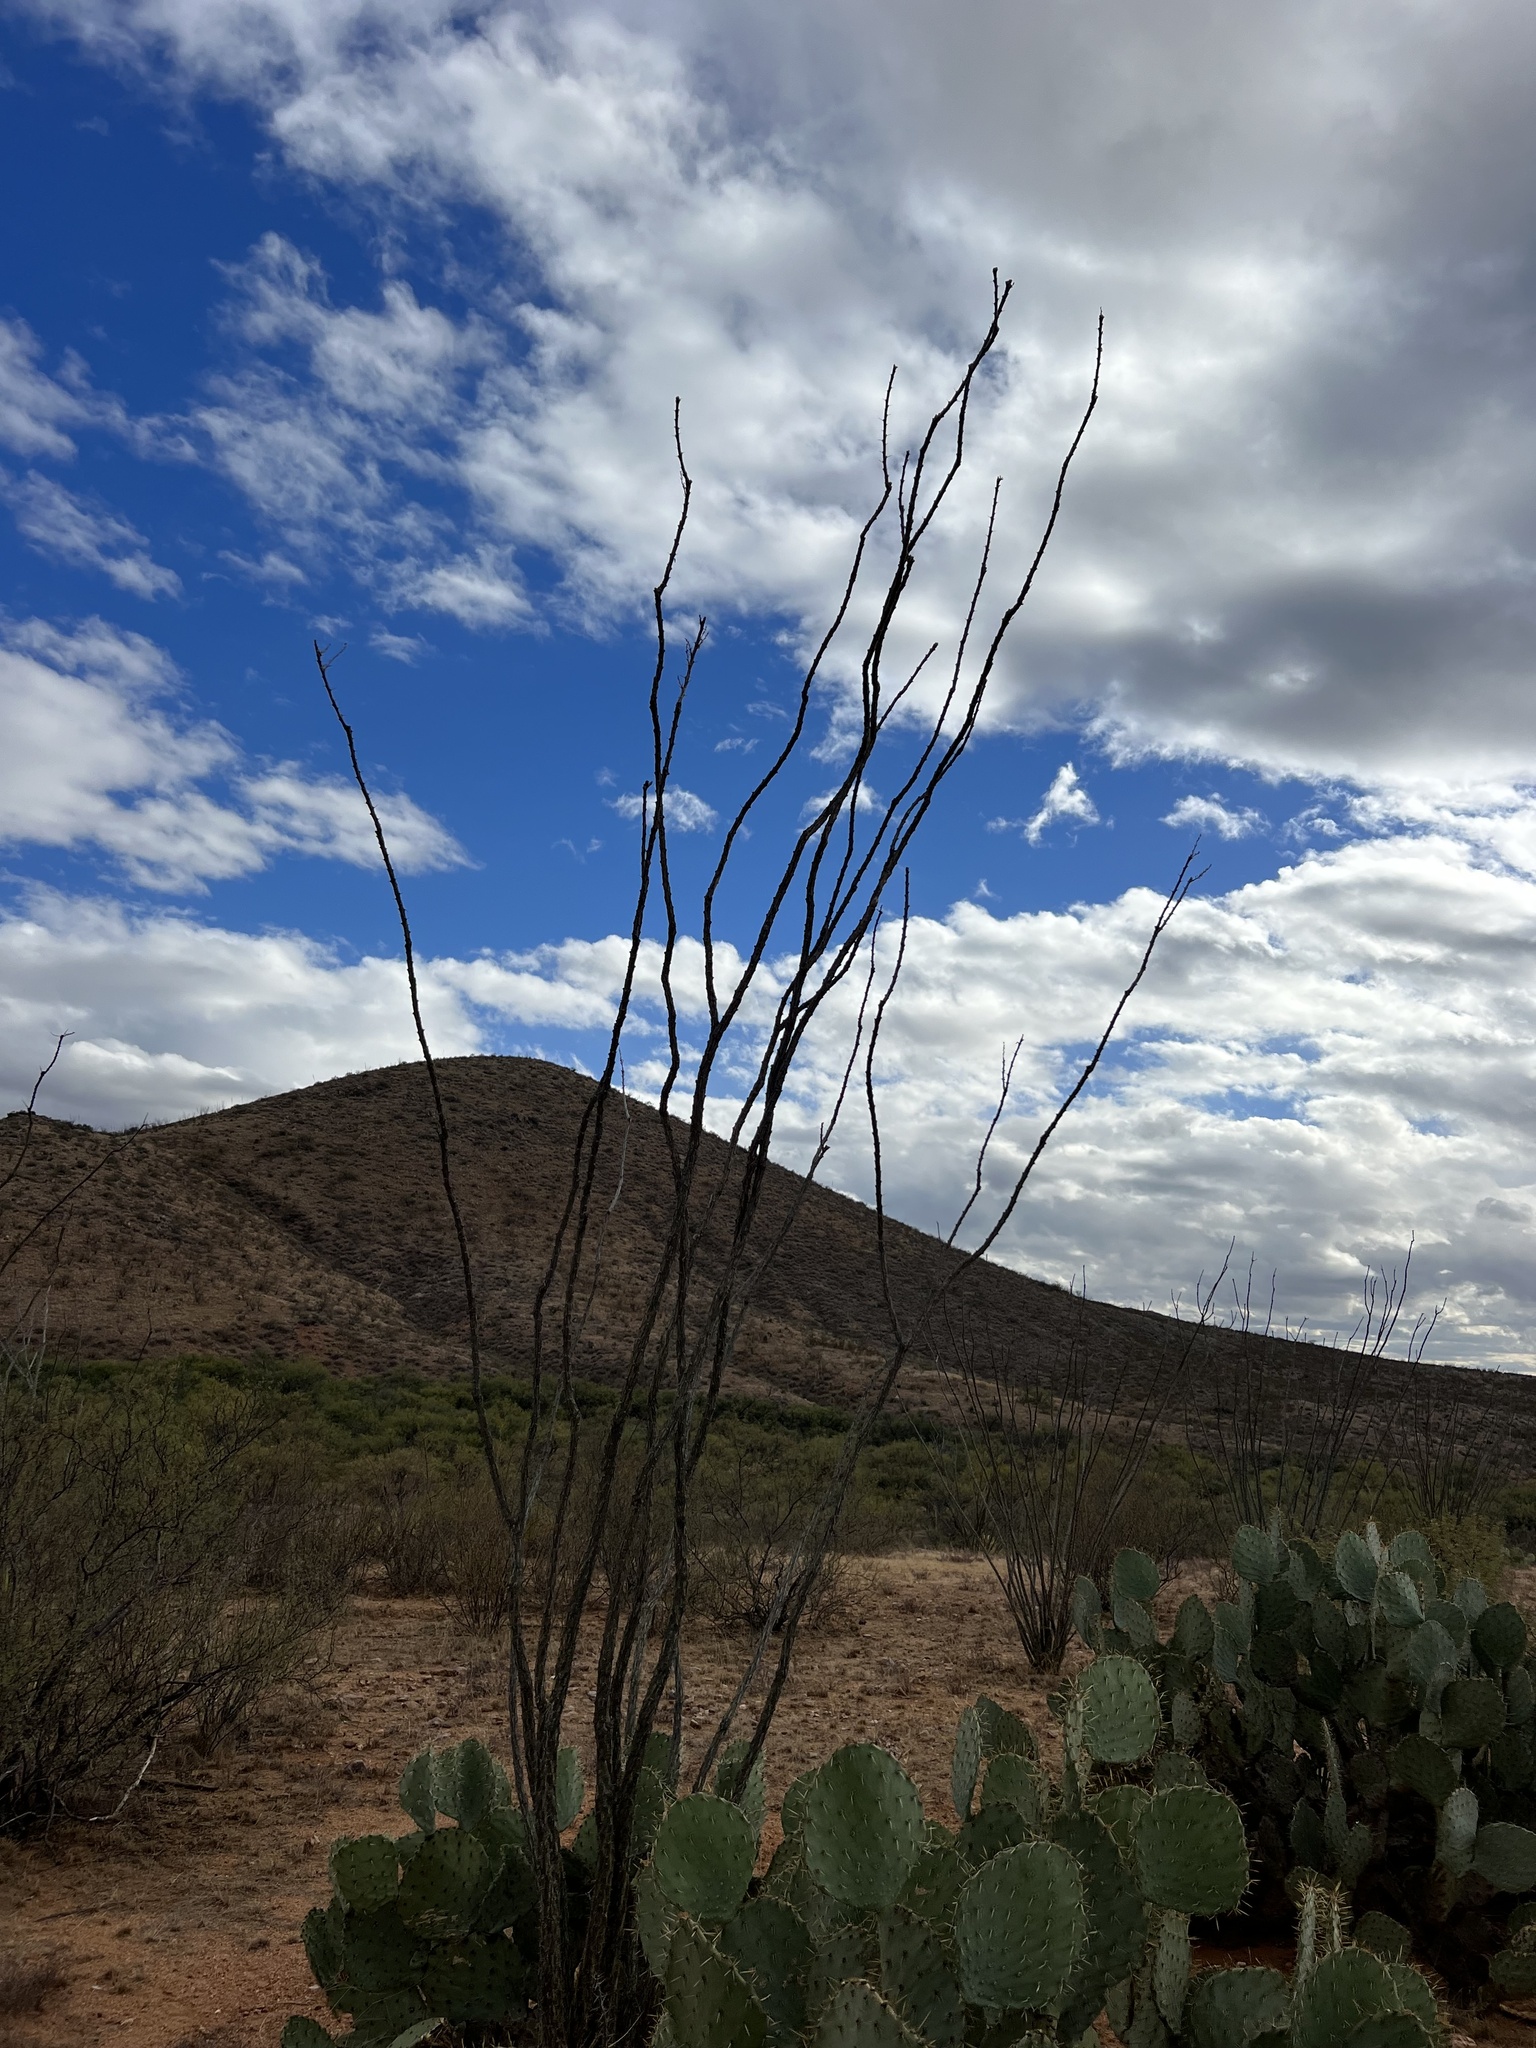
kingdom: Plantae
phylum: Tracheophyta
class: Magnoliopsida
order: Ericales
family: Fouquieriaceae
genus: Fouquieria
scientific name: Fouquieria splendens
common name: Vine-cactus
